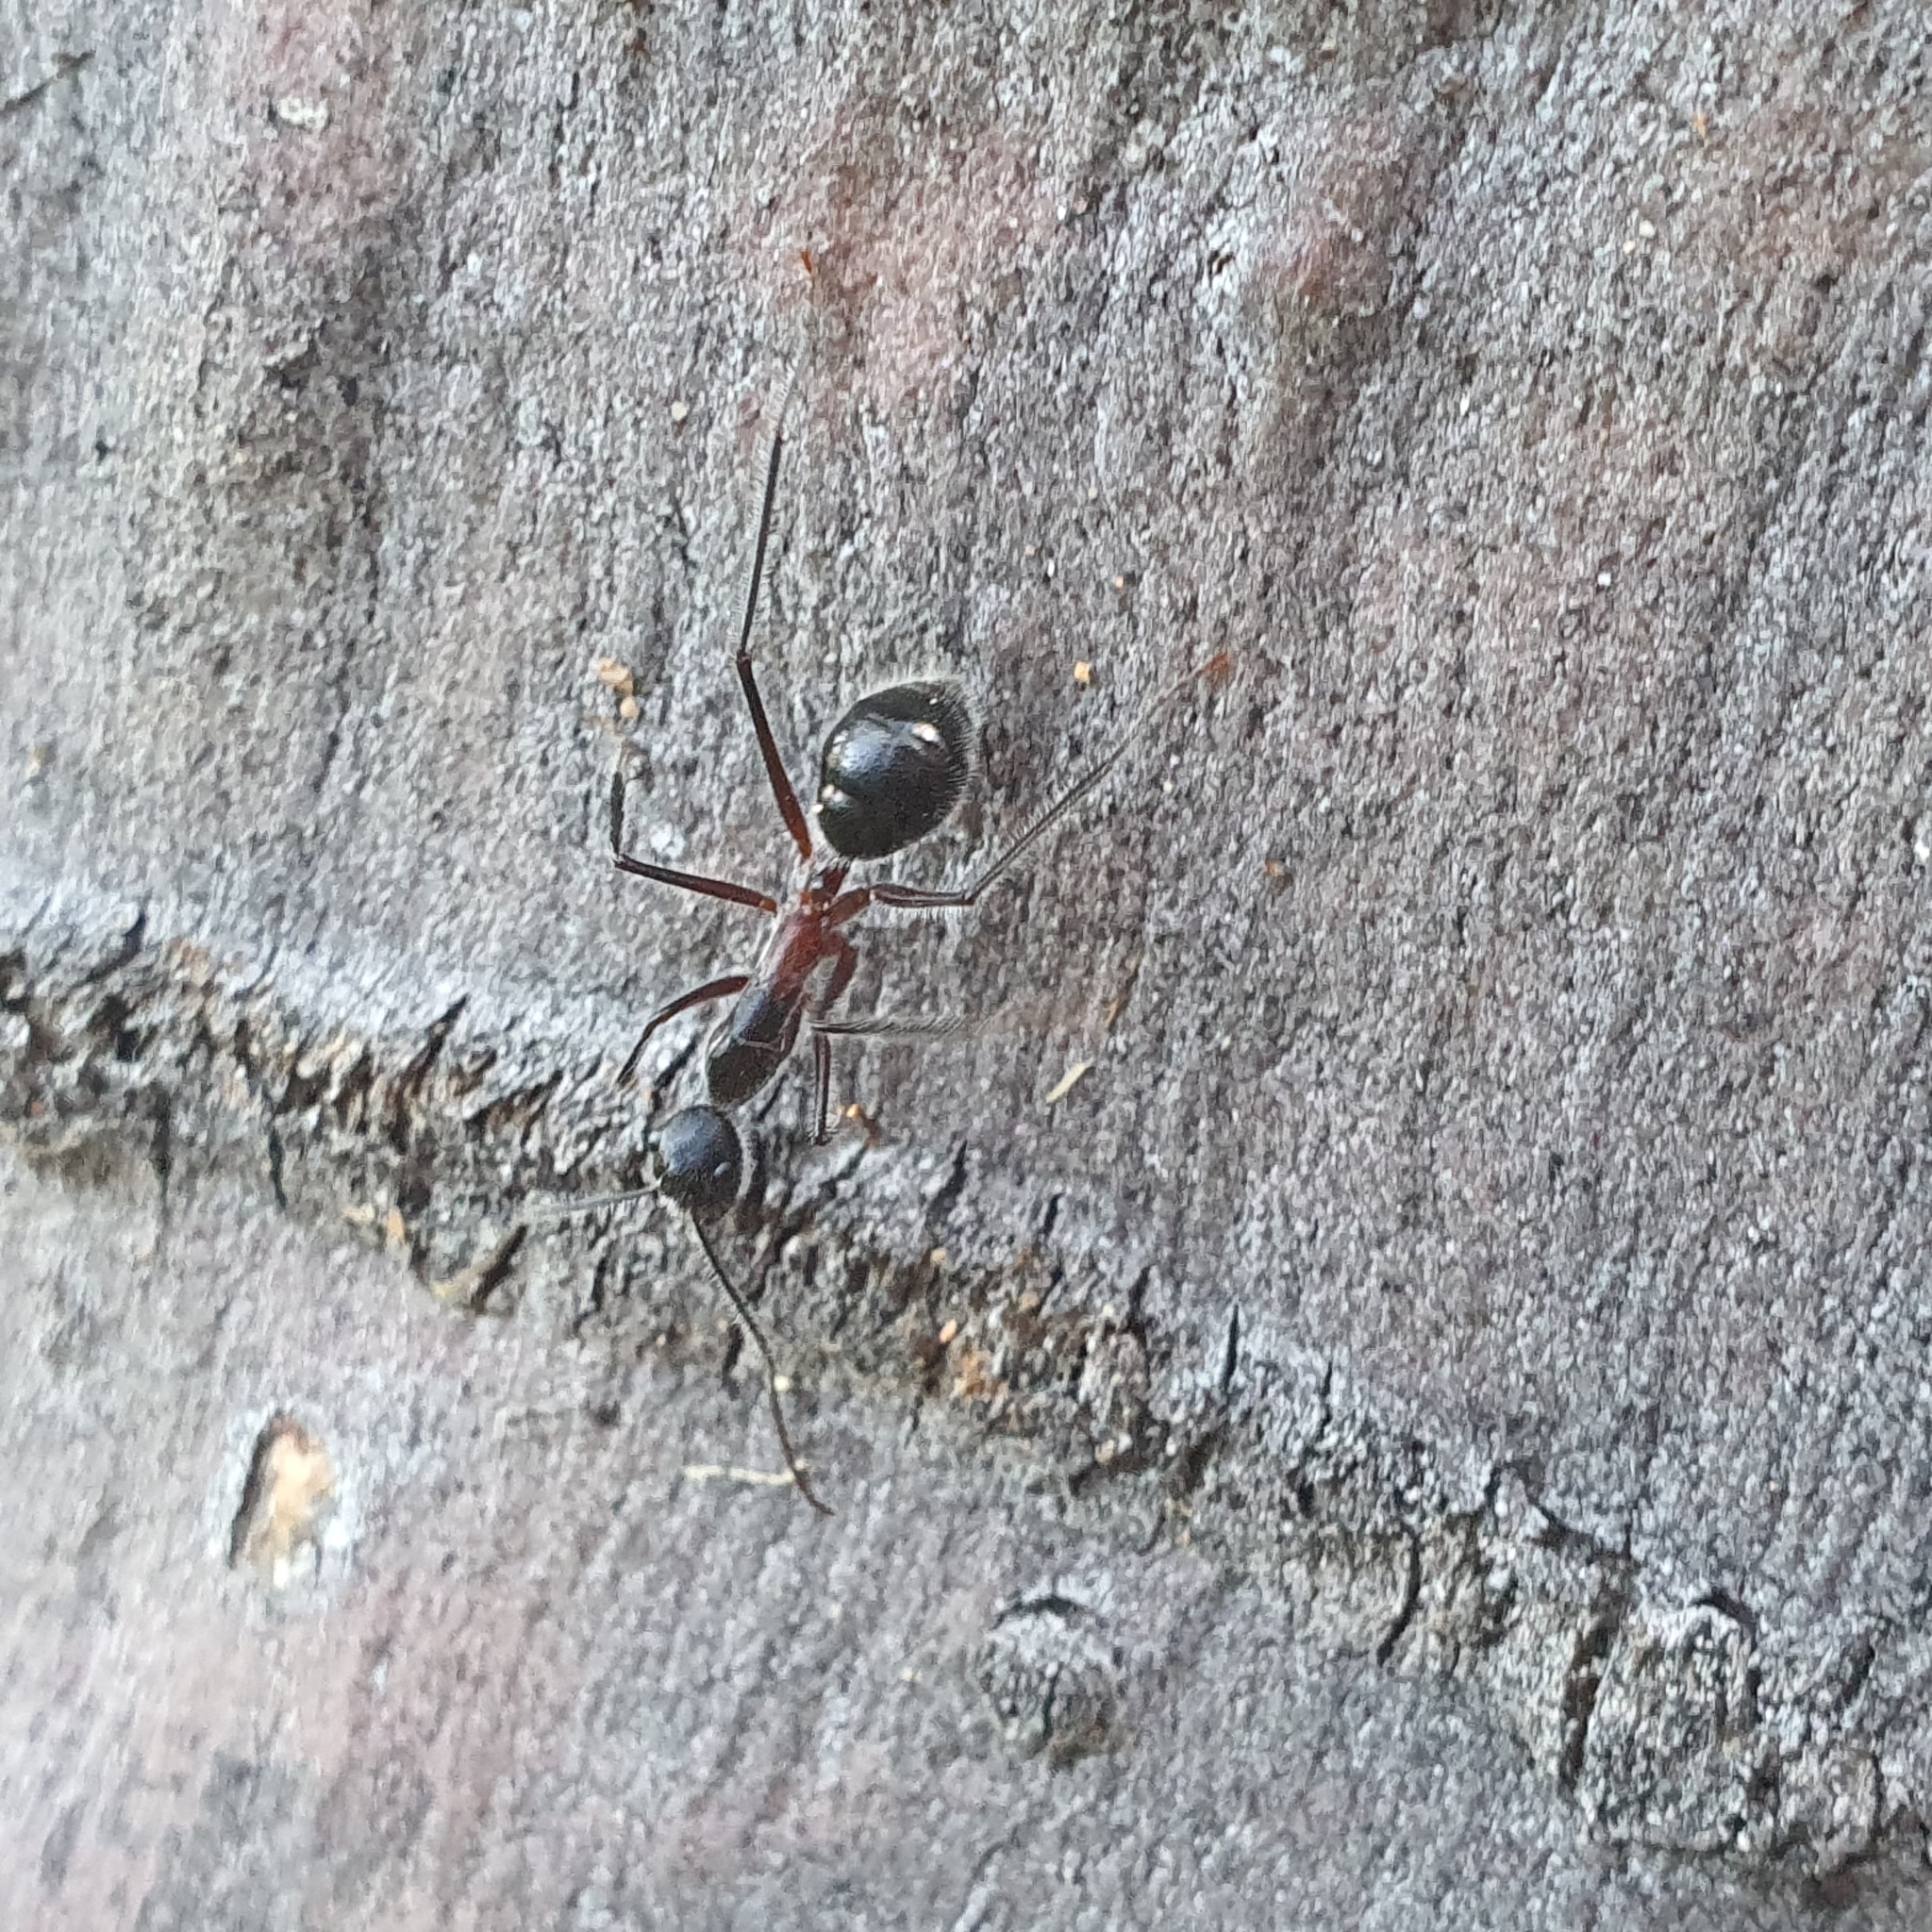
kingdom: Animalia
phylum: Arthropoda
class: Insecta
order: Hymenoptera
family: Formicidae
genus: Camponotus
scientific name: Camponotus intrepidus
